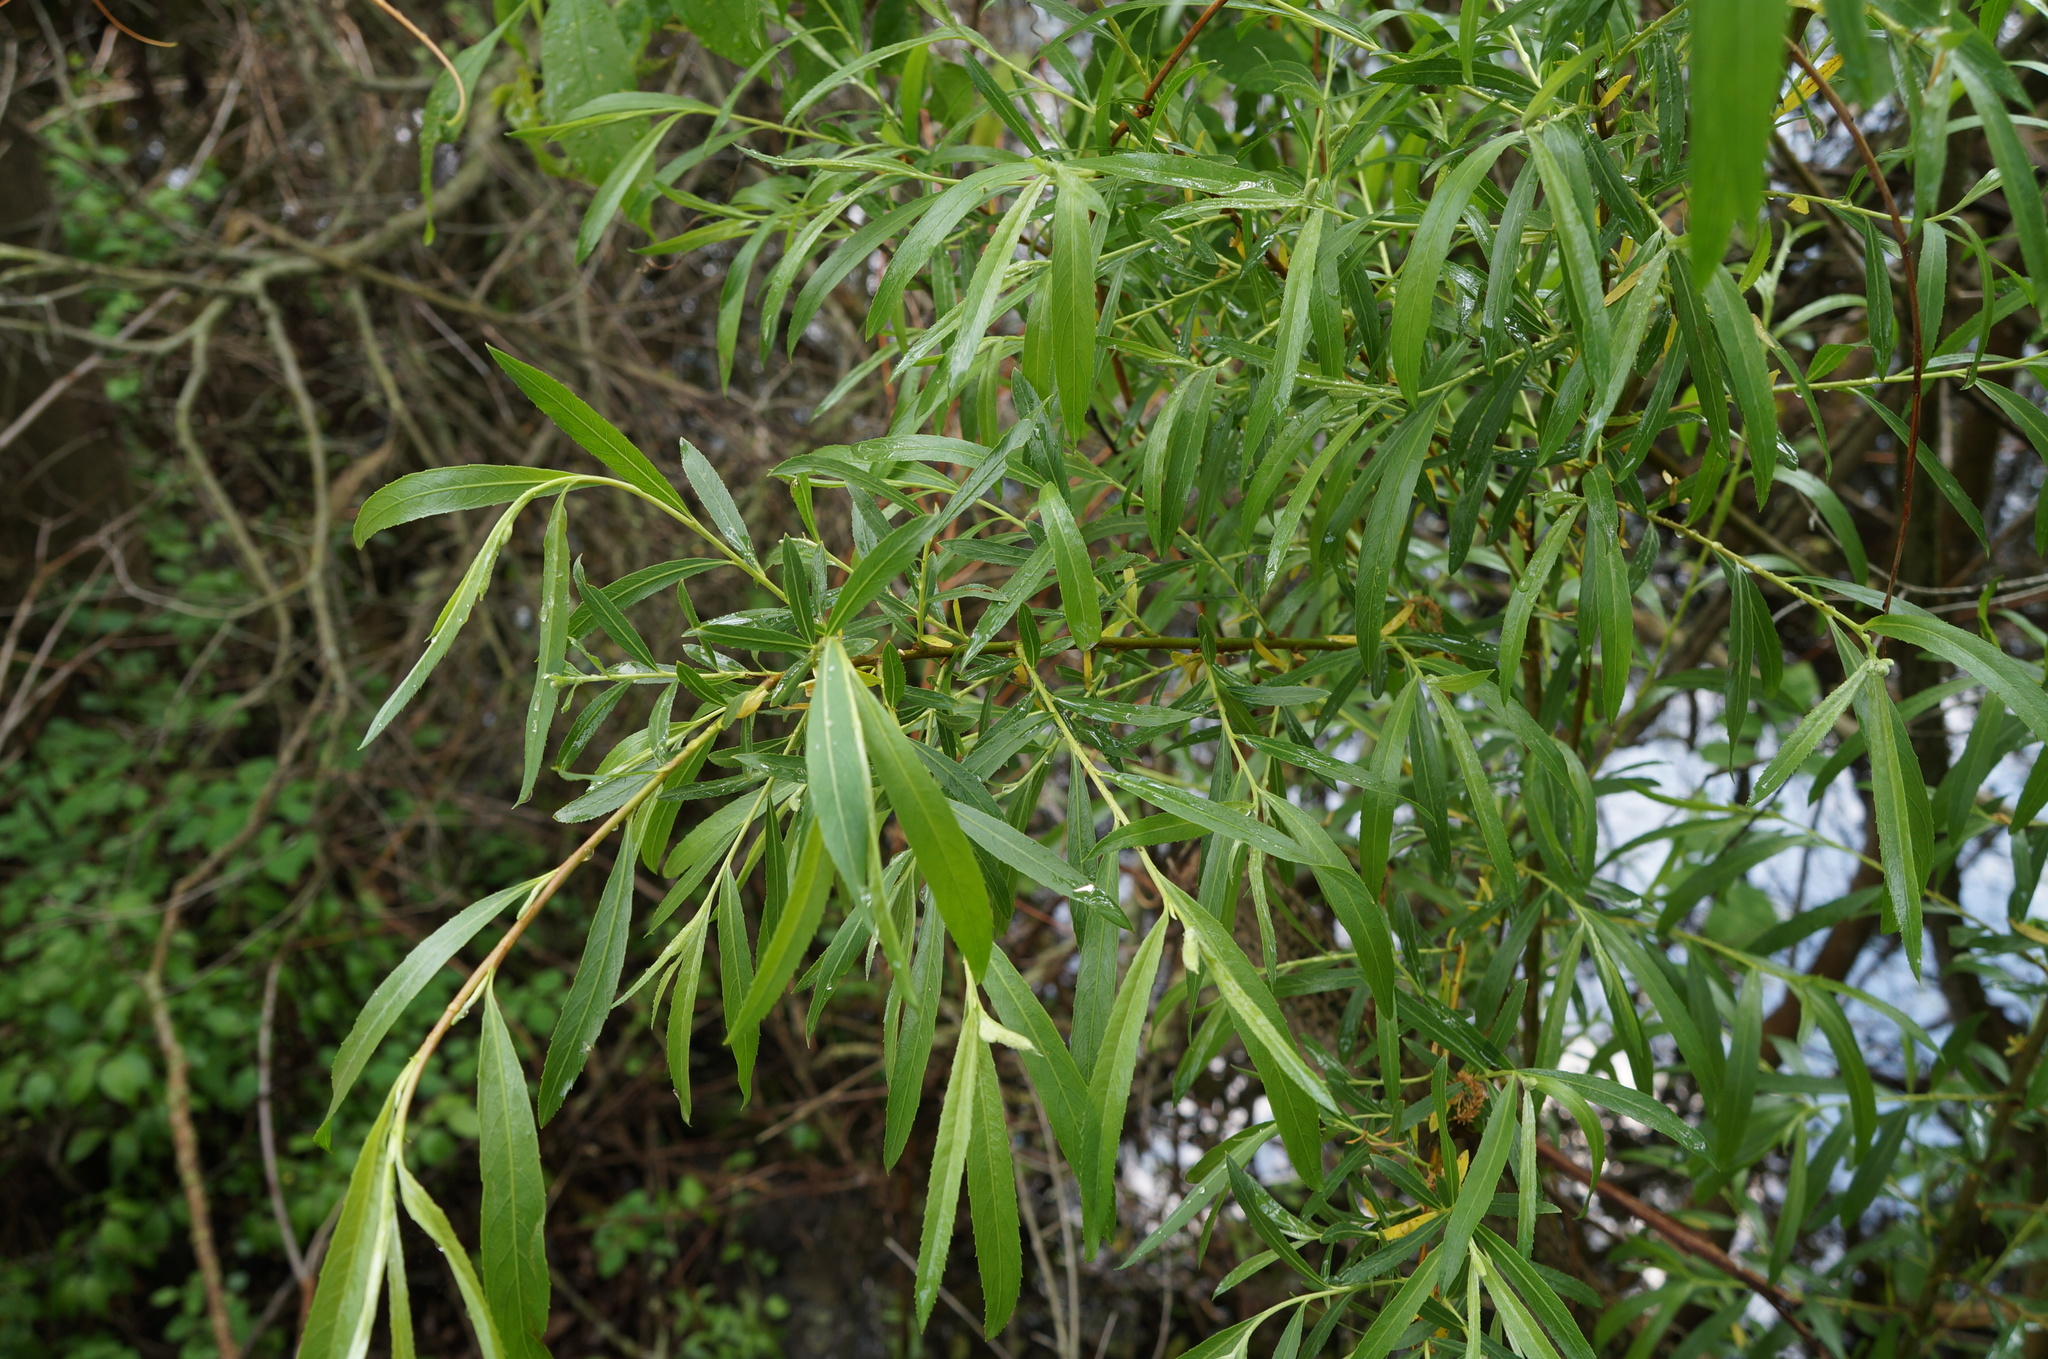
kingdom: Plantae
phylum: Tracheophyta
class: Magnoliopsida
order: Malpighiales
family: Salicaceae
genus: Salix
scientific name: Salix nigra
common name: Black willow
